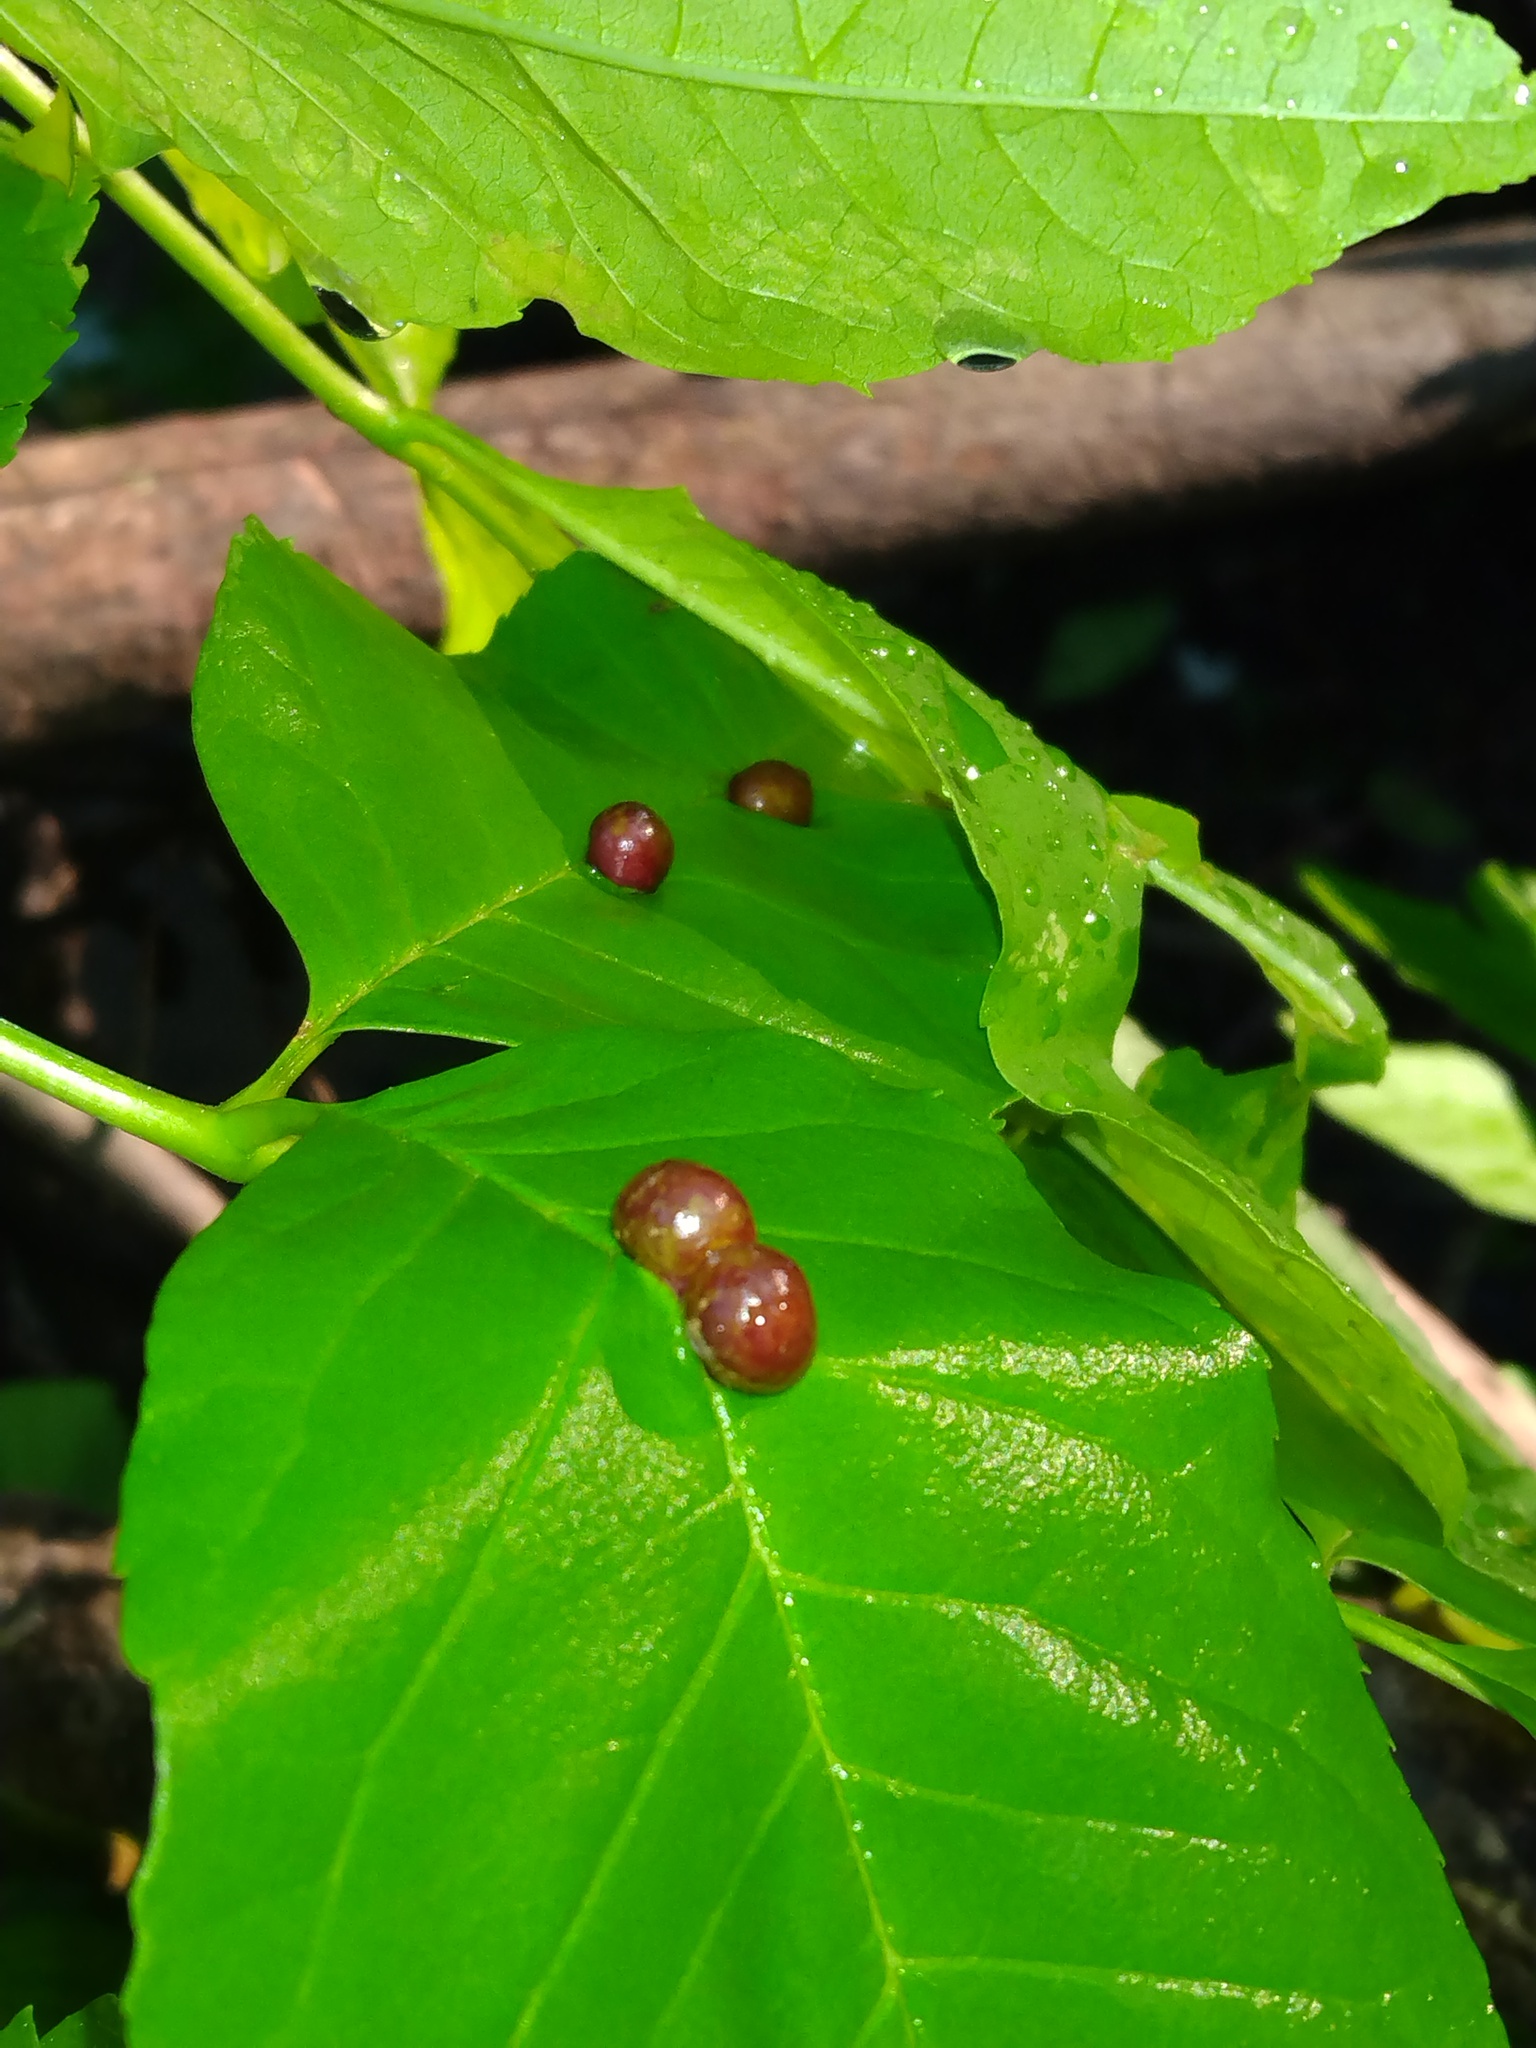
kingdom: Animalia
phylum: Arthropoda
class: Insecta
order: Diptera
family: Cecidomyiidae
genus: Dasineura
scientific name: Dasineura pellex
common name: Ash bullet gall midge
